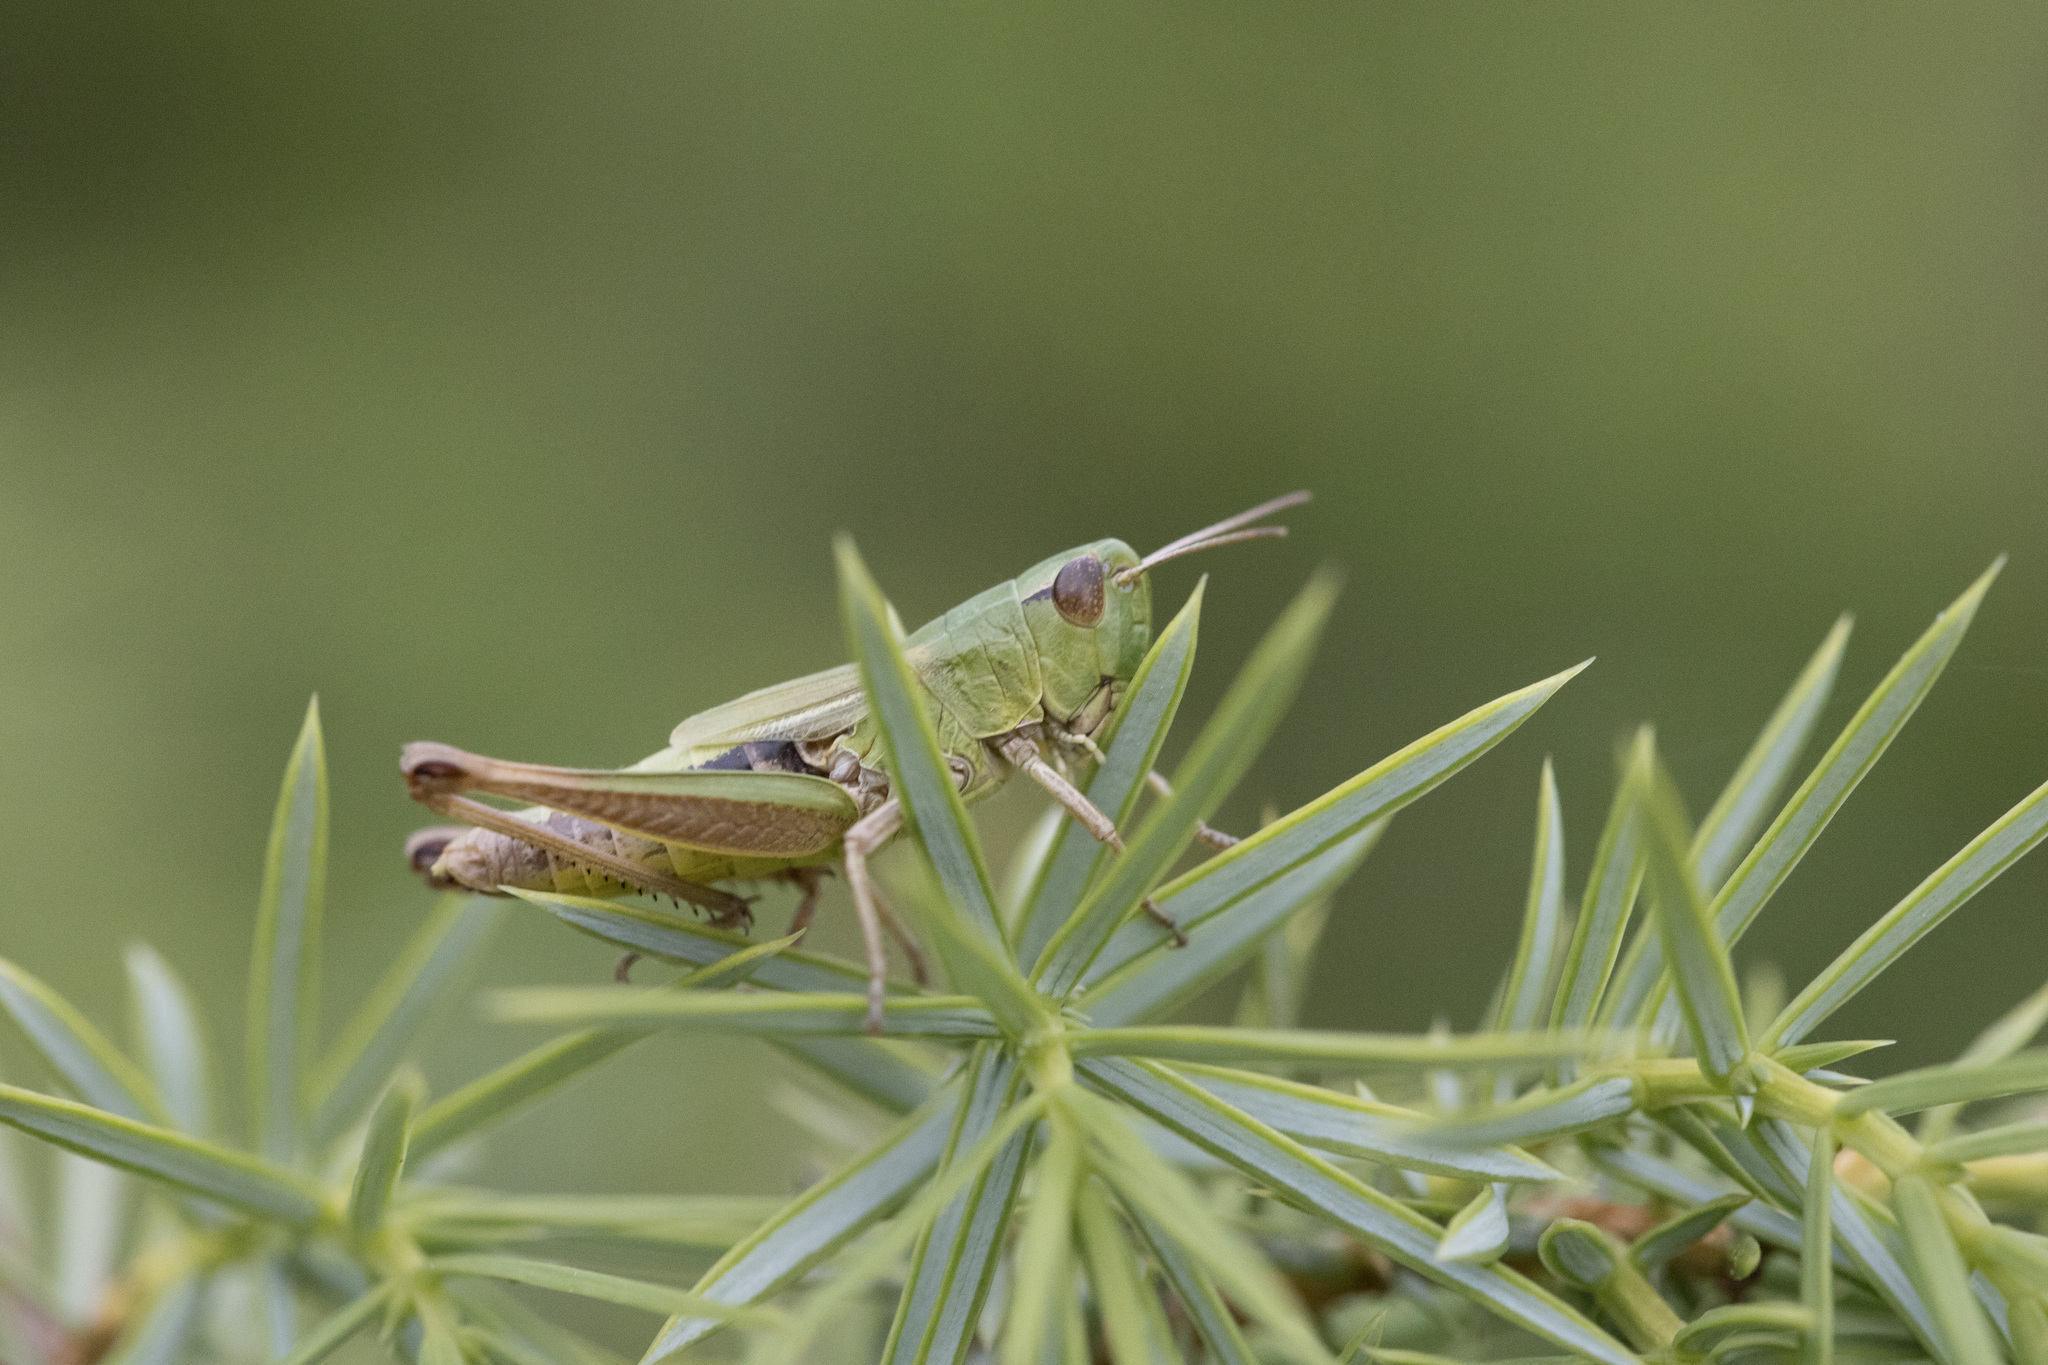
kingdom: Animalia
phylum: Arthropoda
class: Insecta
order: Orthoptera
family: Acrididae
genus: Pseudochorthippus
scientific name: Pseudochorthippus parallelus
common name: Meadow grasshopper
